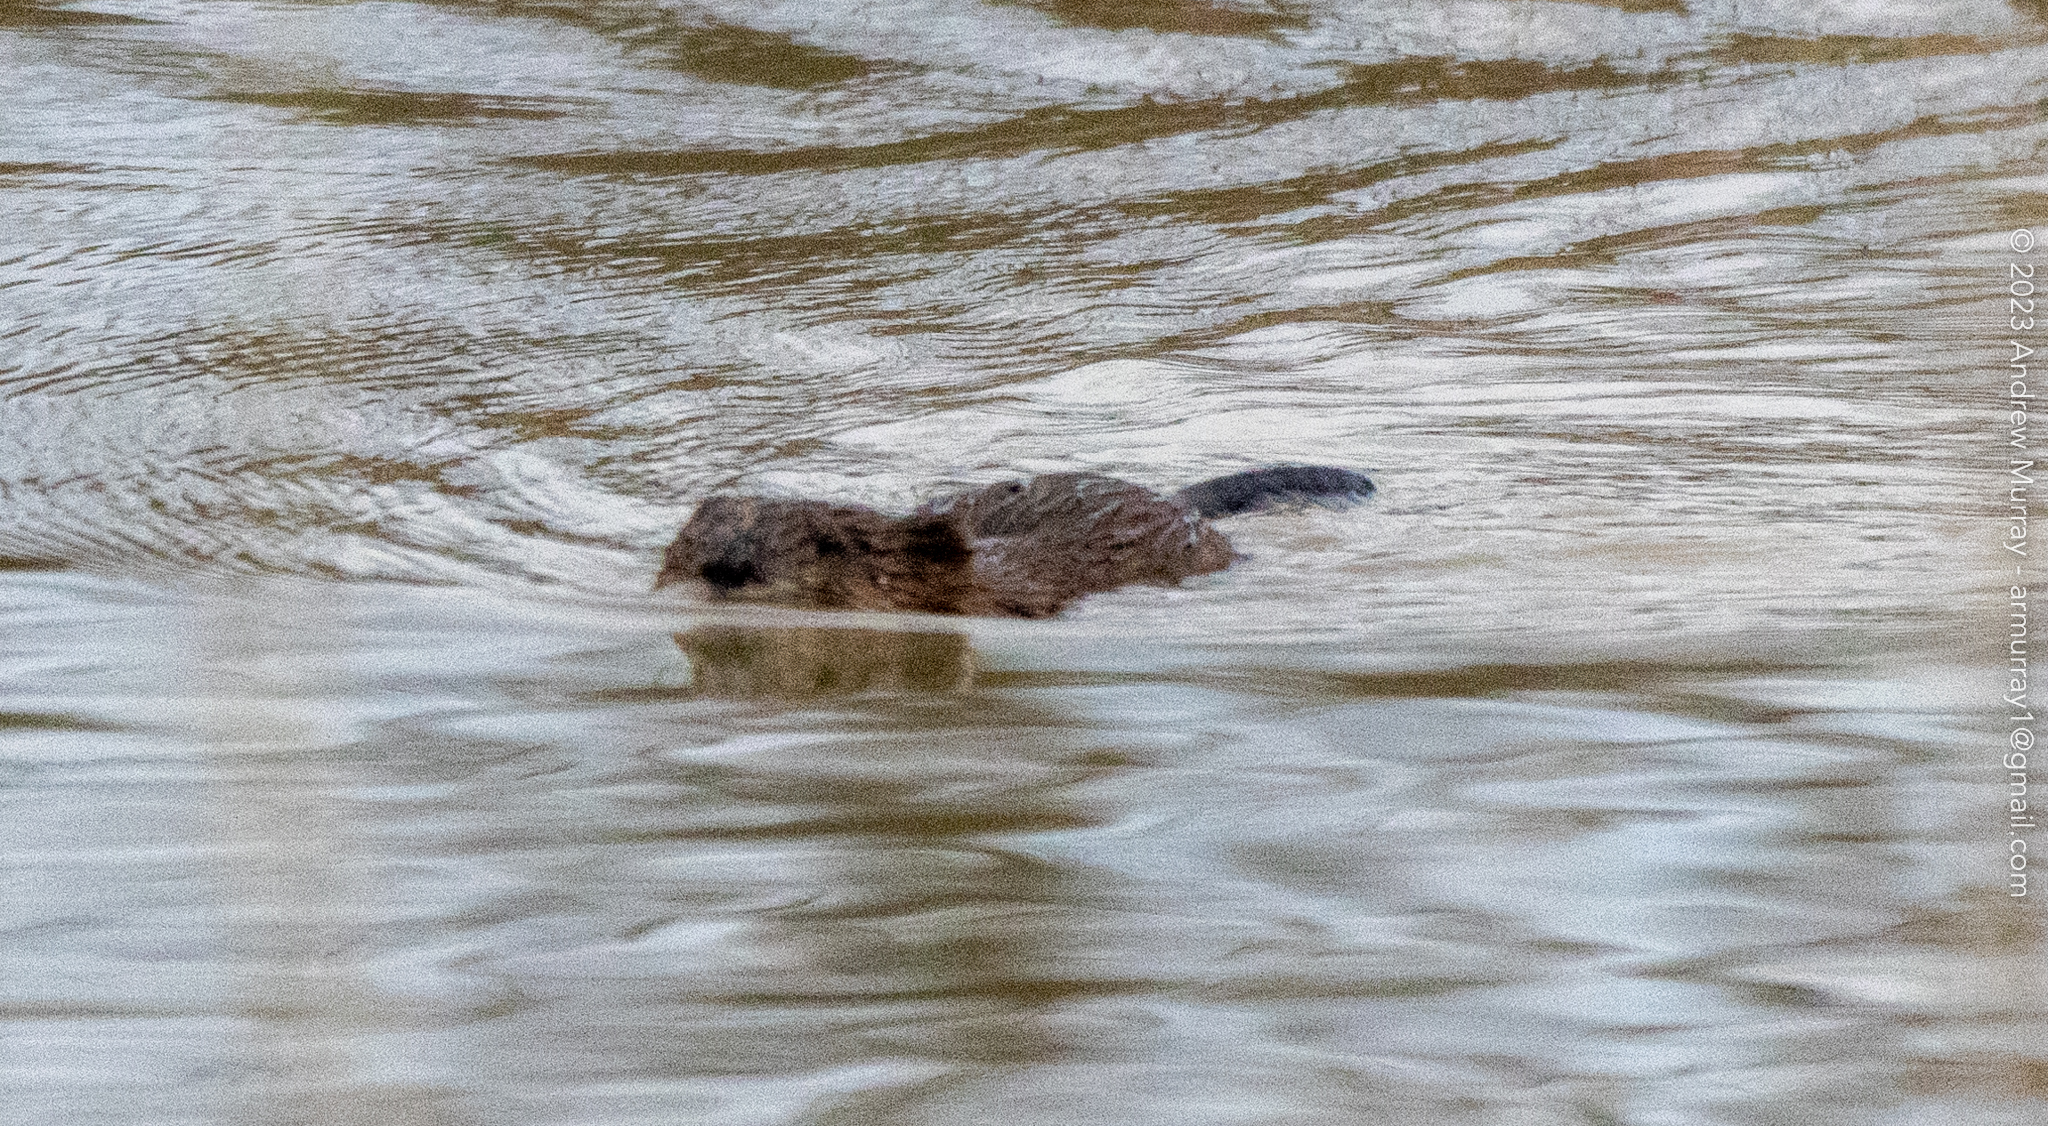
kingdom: Animalia
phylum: Chordata
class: Mammalia
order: Rodentia
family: Cricetidae
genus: Ondatra
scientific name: Ondatra zibethicus
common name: Muskrat
